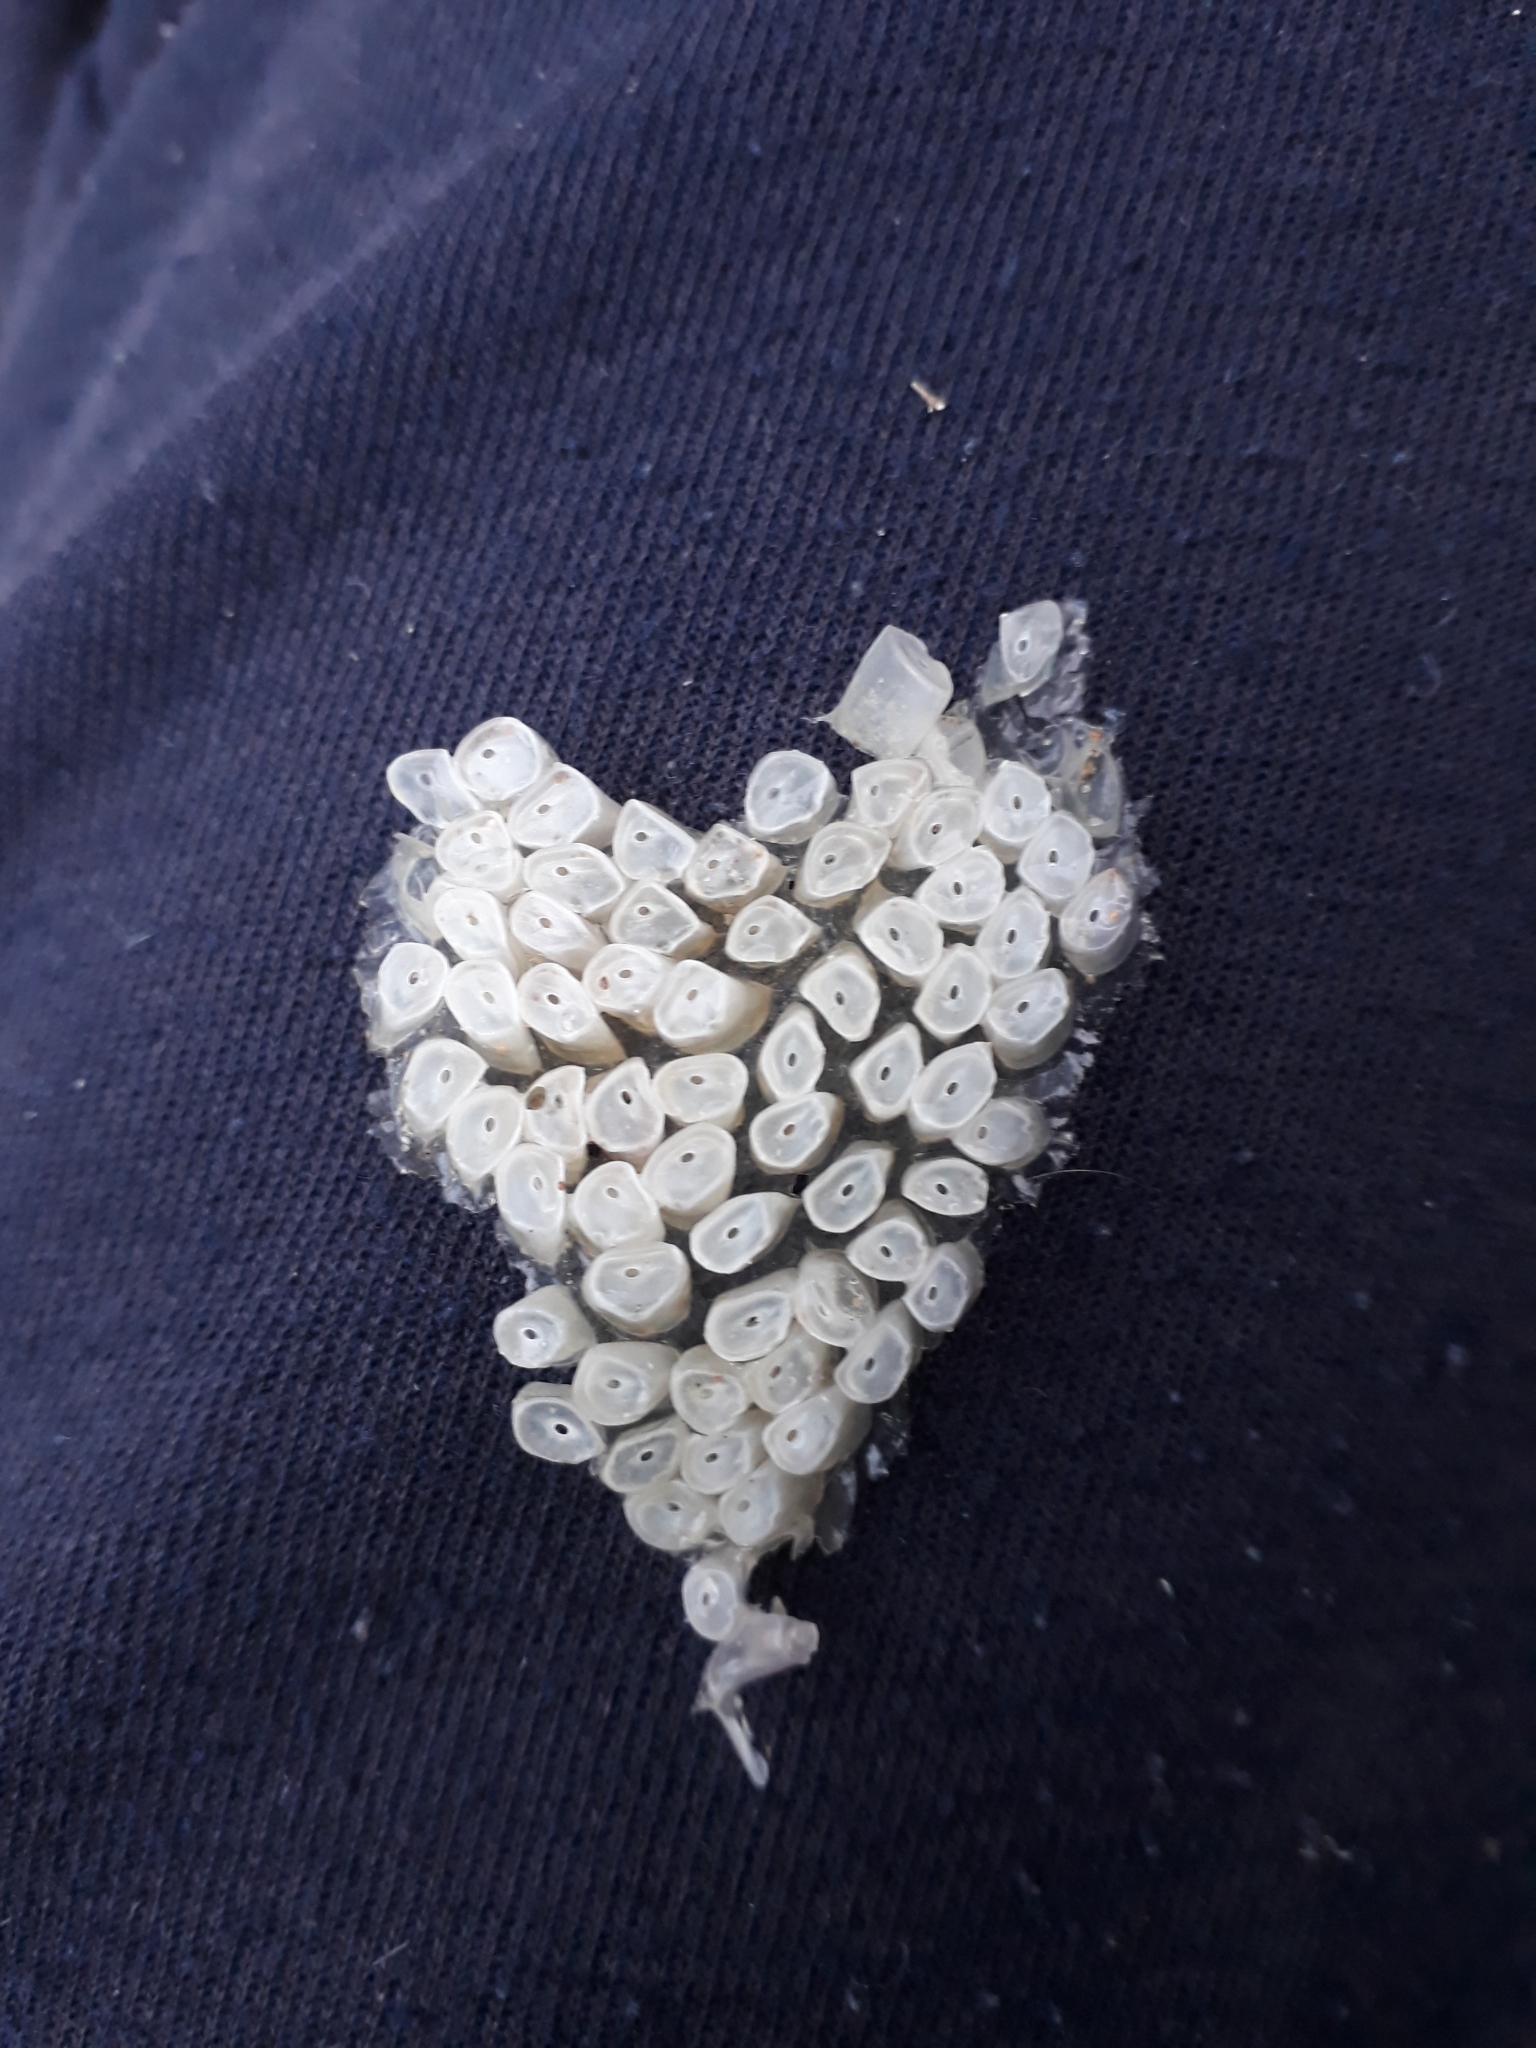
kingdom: Animalia
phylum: Mollusca
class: Gastropoda
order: Neogastropoda
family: Muricidae
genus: Dicathais
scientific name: Dicathais orbita
